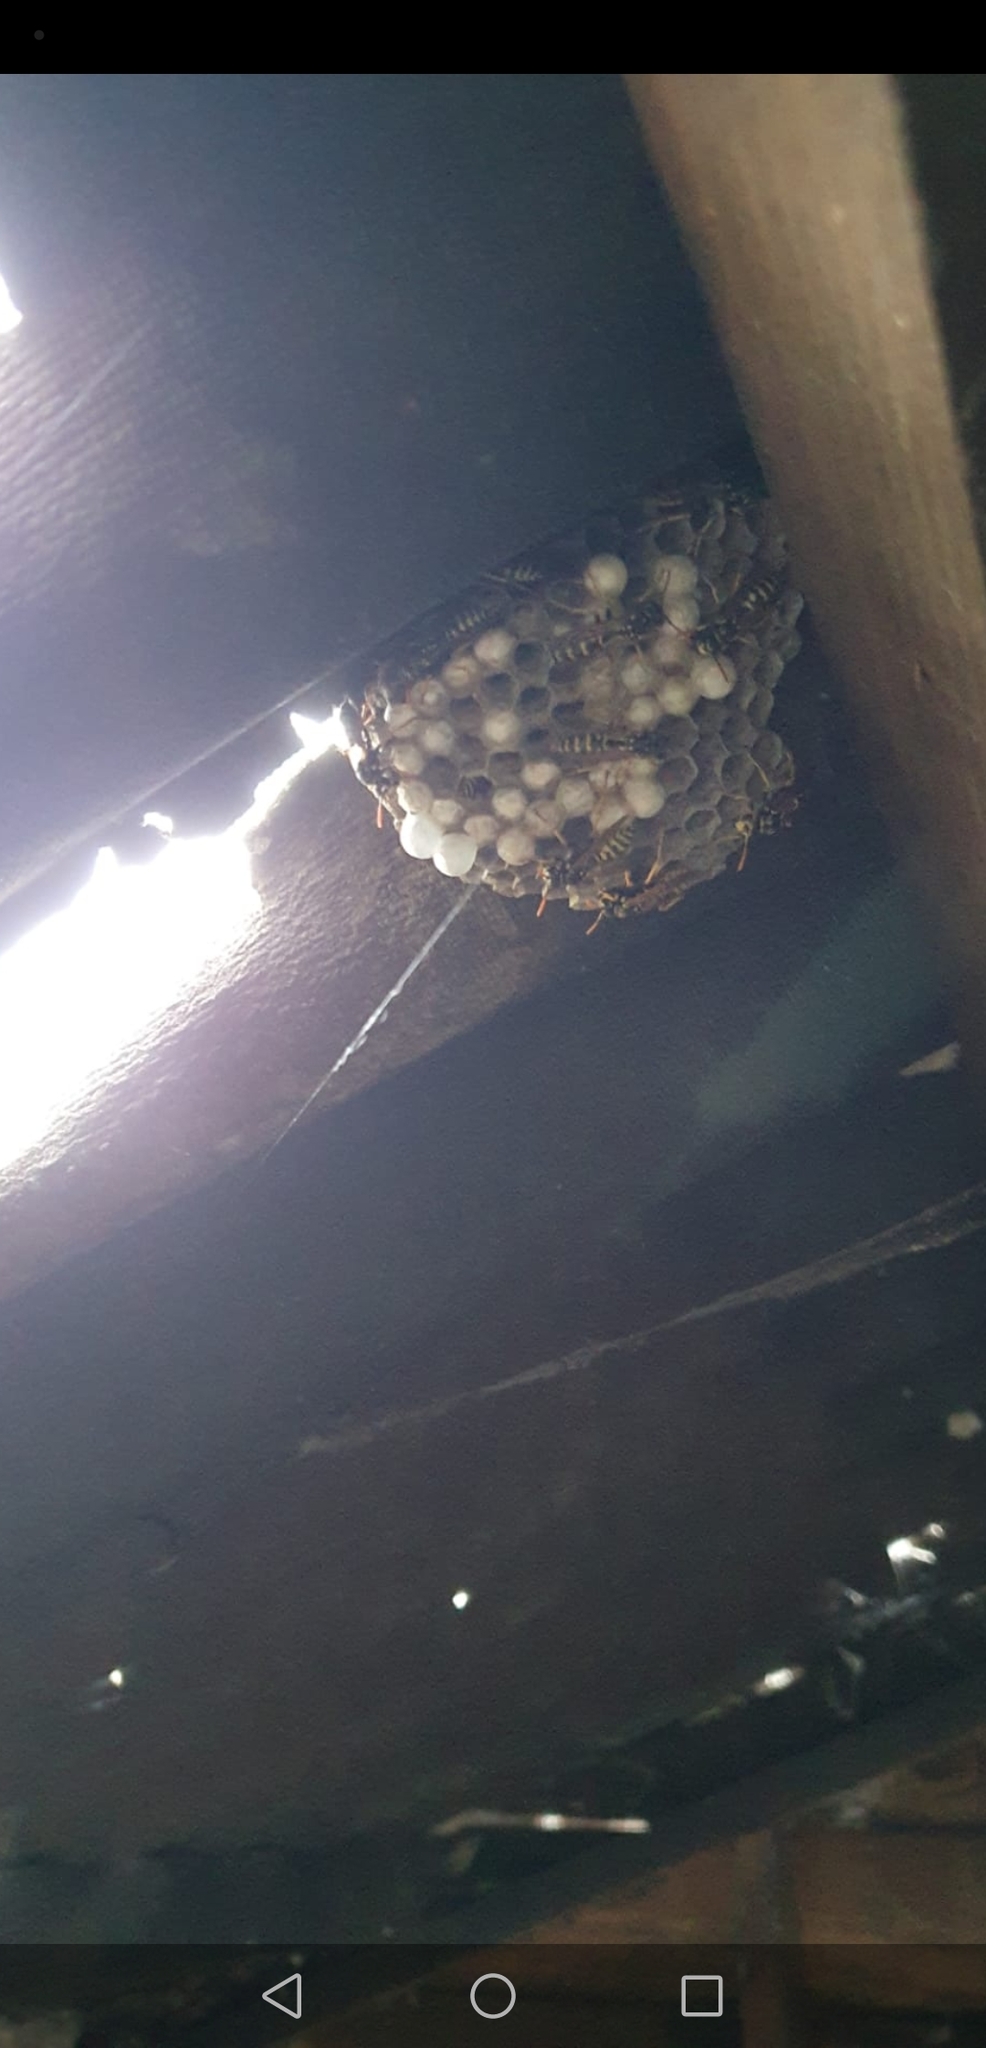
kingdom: Animalia
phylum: Arthropoda
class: Insecta
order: Hymenoptera
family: Eumenidae
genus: Polistes
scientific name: Polistes dominula
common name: Paper wasp
